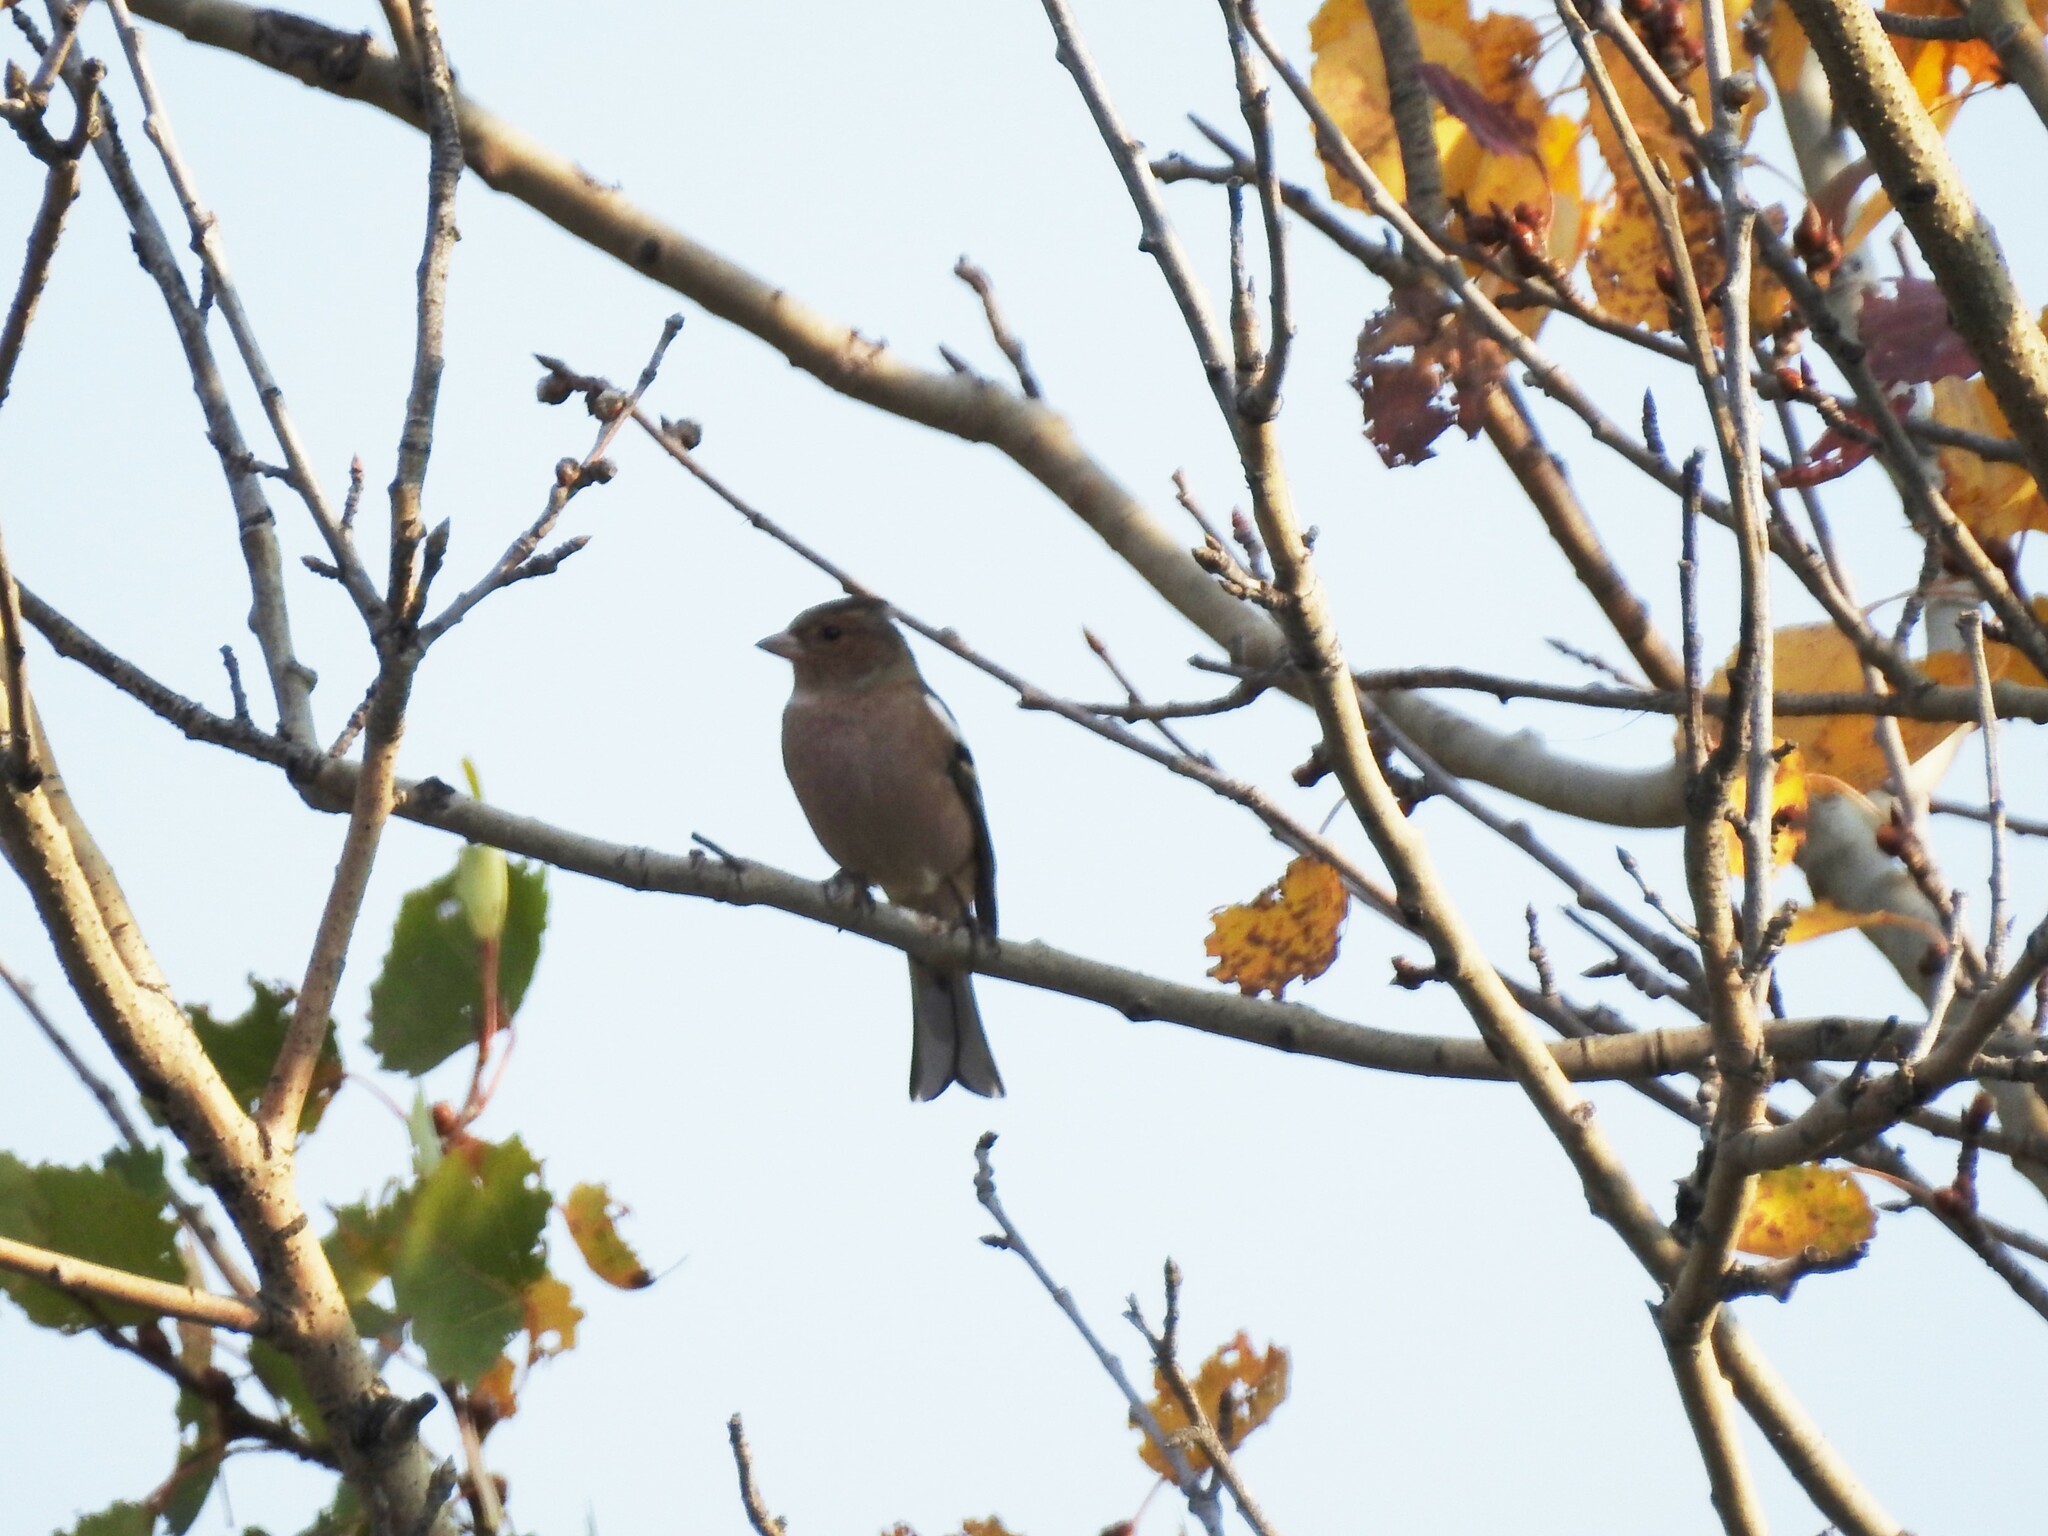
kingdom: Animalia
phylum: Chordata
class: Aves
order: Passeriformes
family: Fringillidae
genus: Fringilla
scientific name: Fringilla coelebs
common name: Common chaffinch
